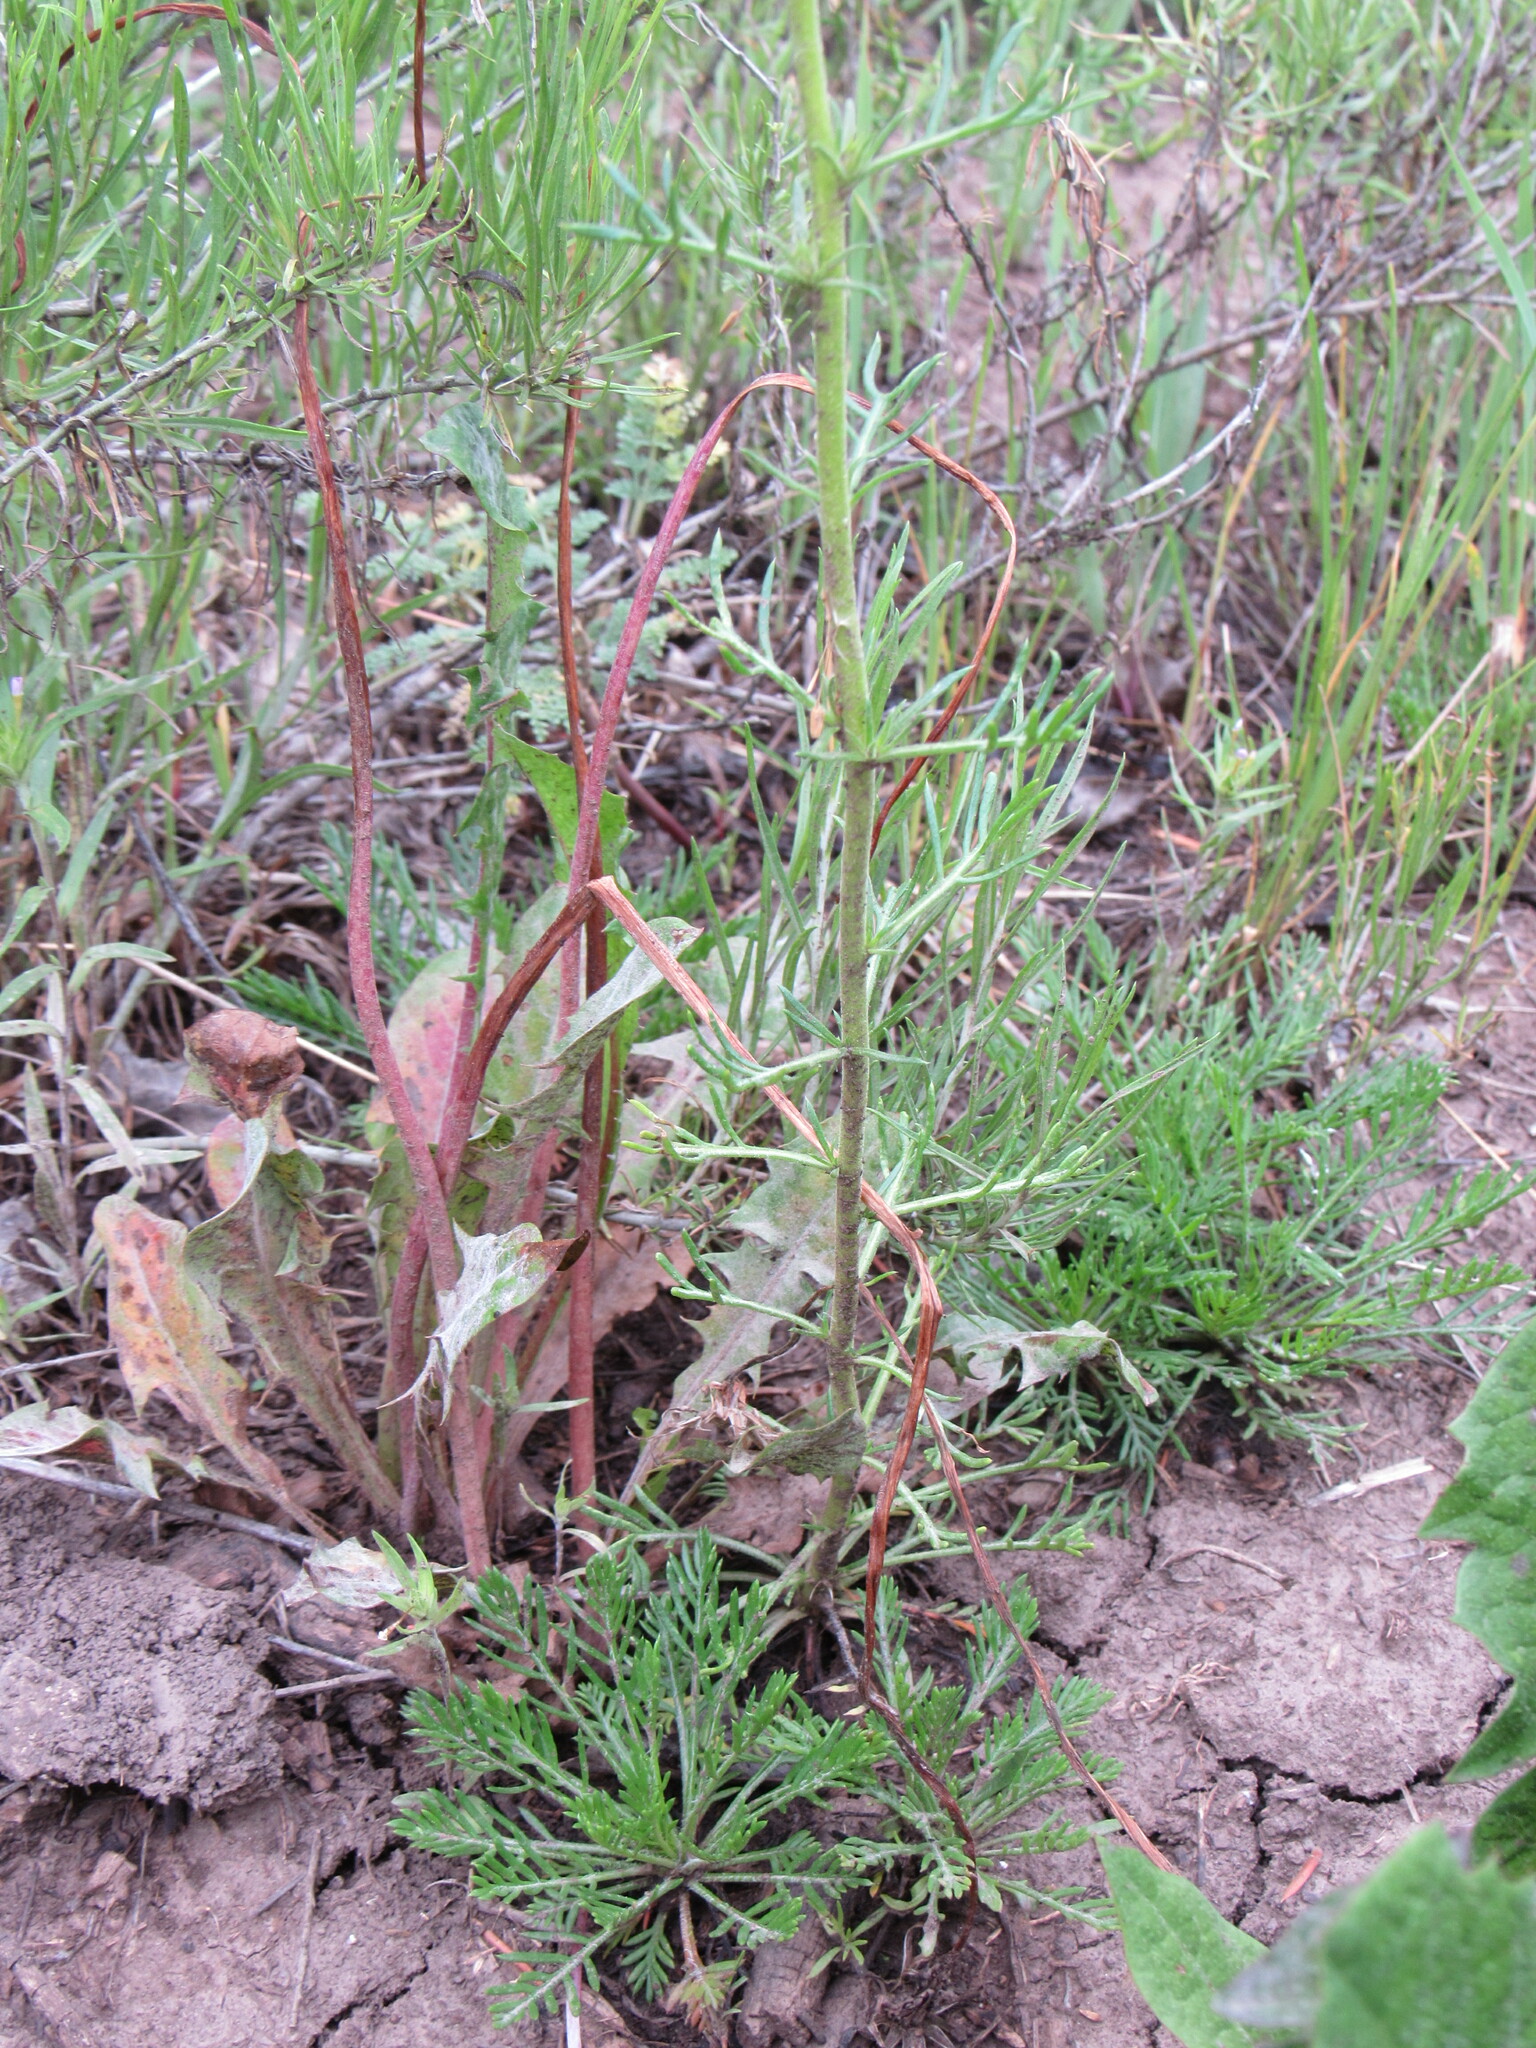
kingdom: Plantae
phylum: Tracheophyta
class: Magnoliopsida
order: Ericales
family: Polemoniaceae
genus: Ipomopsis
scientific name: Ipomopsis aggregata
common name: Scarlet gilia
